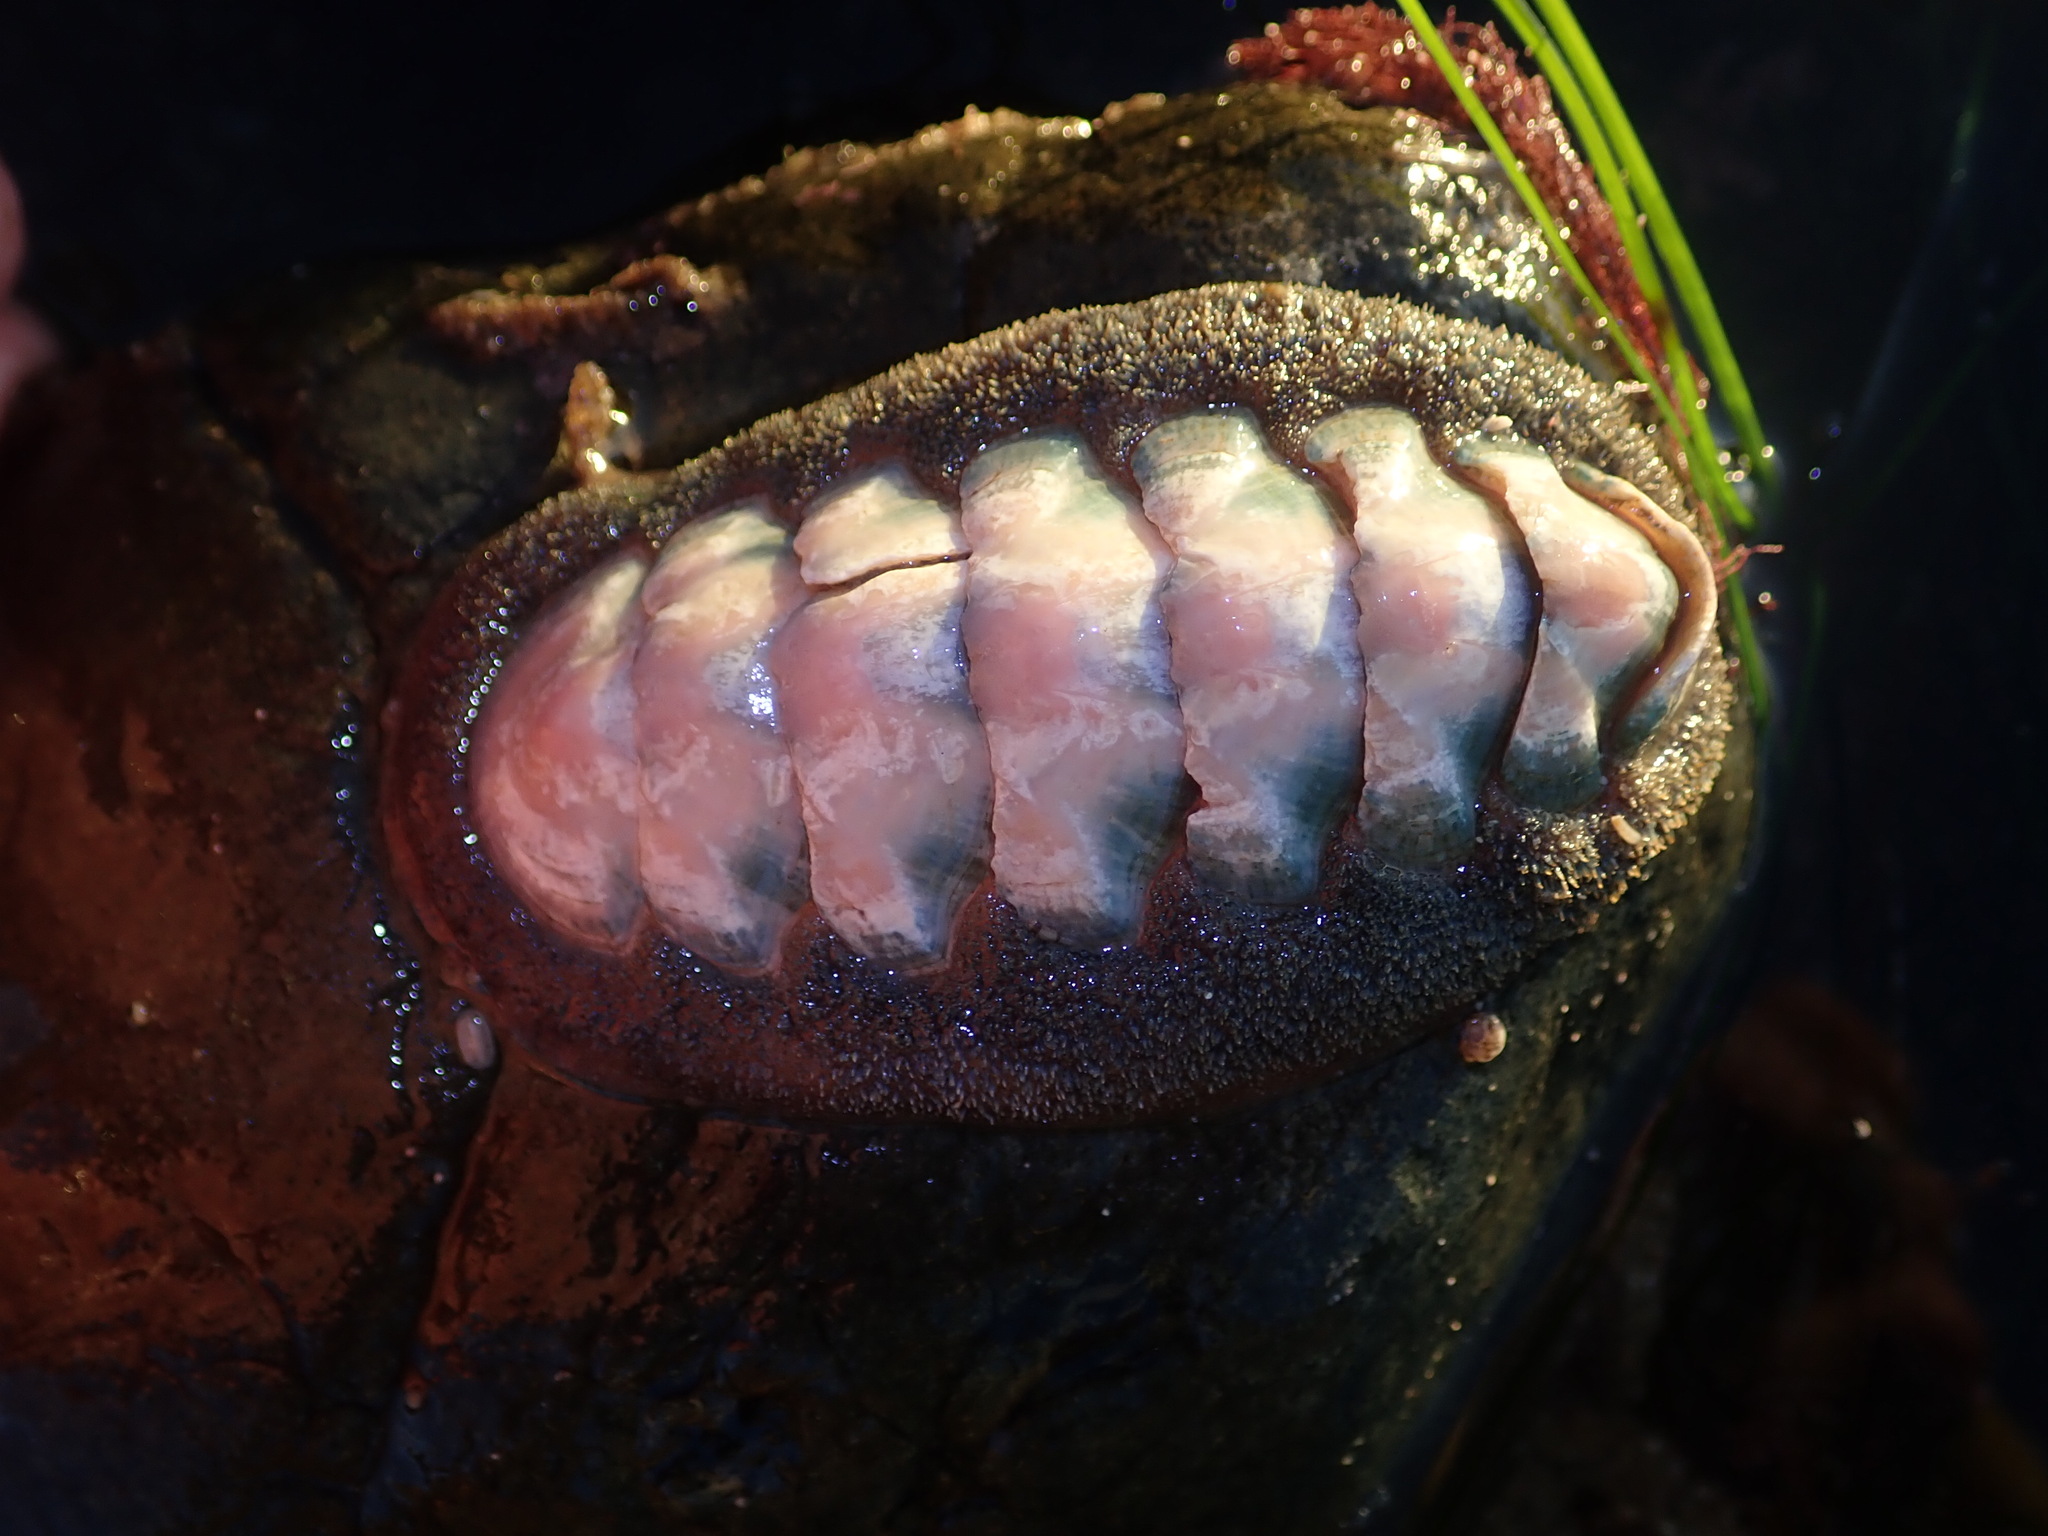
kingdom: Animalia
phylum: Mollusca
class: Polyplacophora
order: Chitonida
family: Ischnochitonidae
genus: Stenoplax
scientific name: Stenoplax conspicua
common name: Conspicuous chiton
